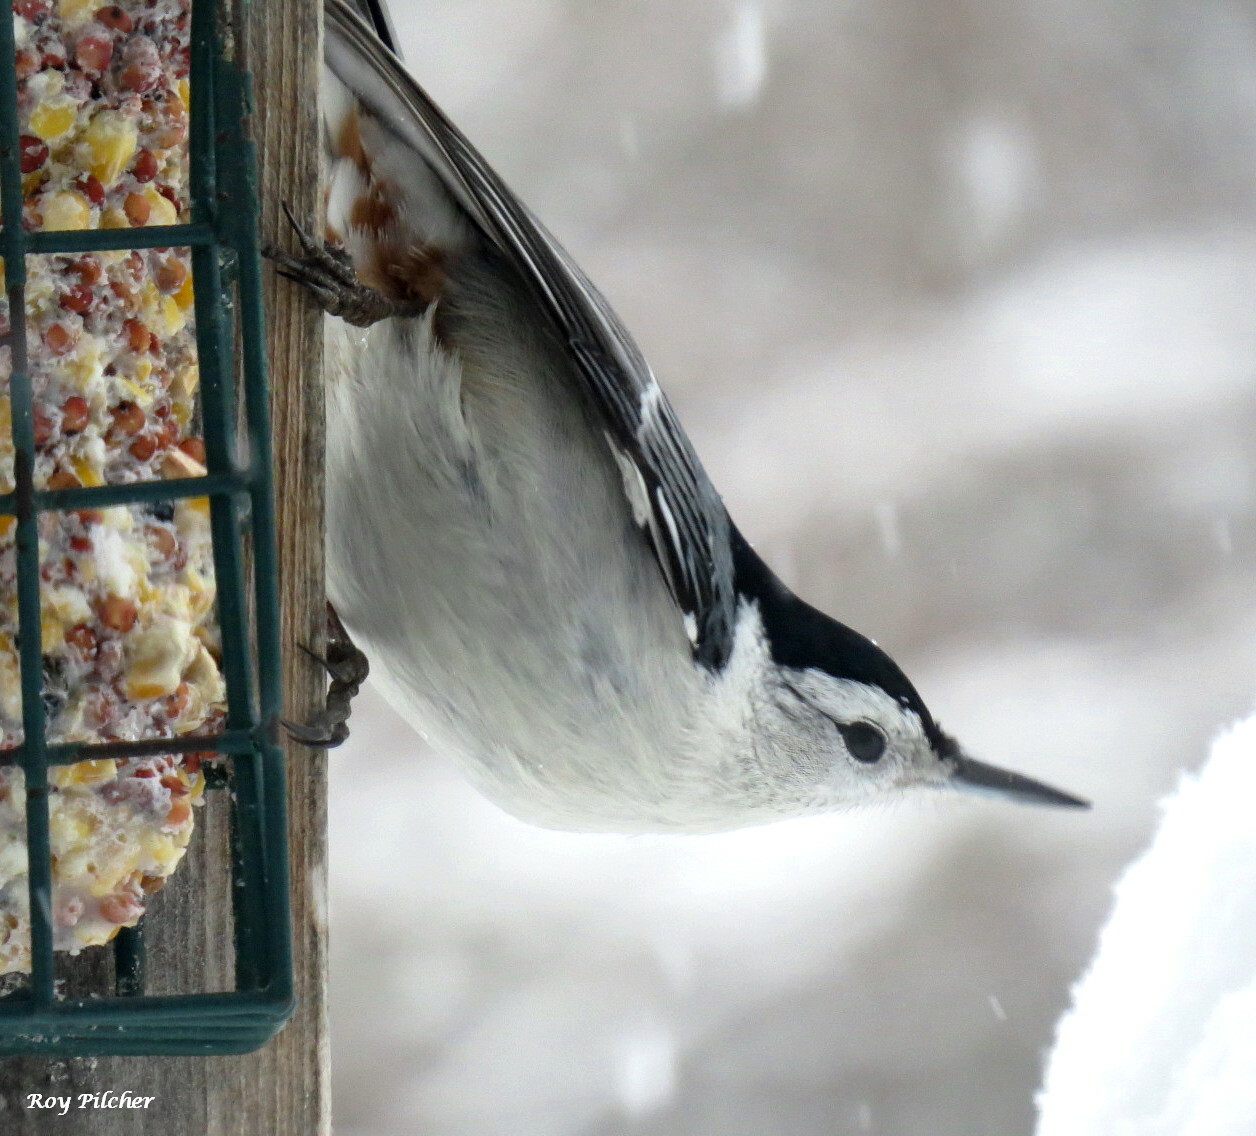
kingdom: Animalia
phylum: Chordata
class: Aves
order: Passeriformes
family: Sittidae
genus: Sitta
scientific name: Sitta carolinensis
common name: White-breasted nuthatch
